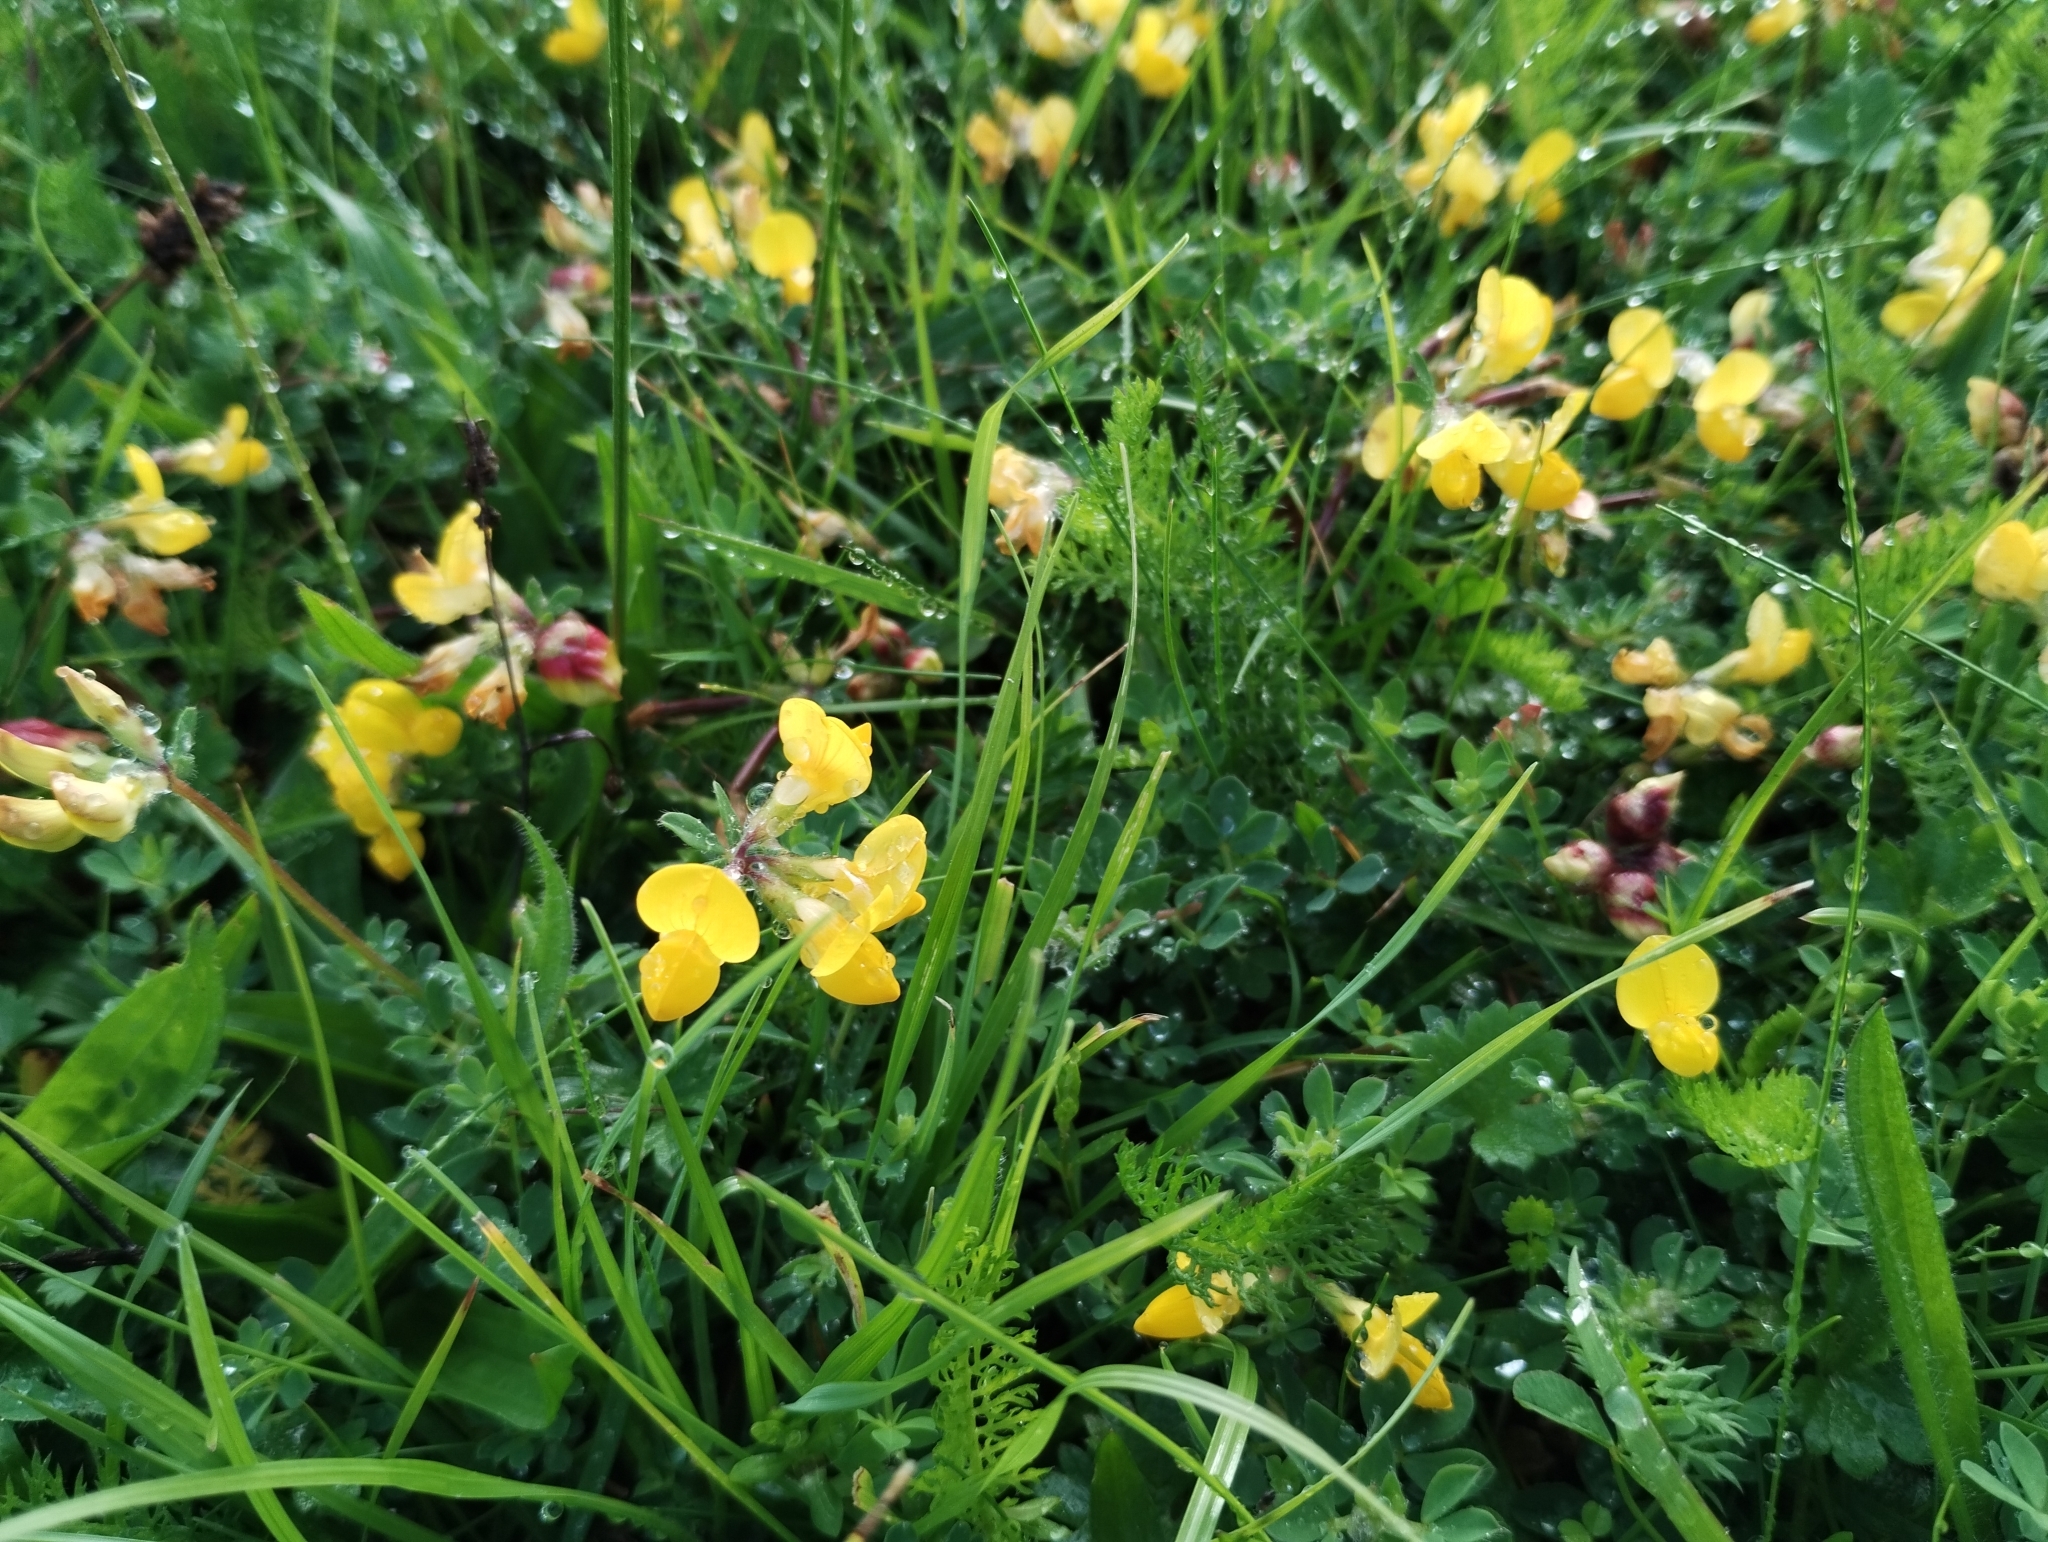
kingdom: Plantae
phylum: Tracheophyta
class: Magnoliopsida
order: Fabales
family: Fabaceae
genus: Lotus
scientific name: Lotus corniculatus
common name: Common bird's-foot-trefoil
